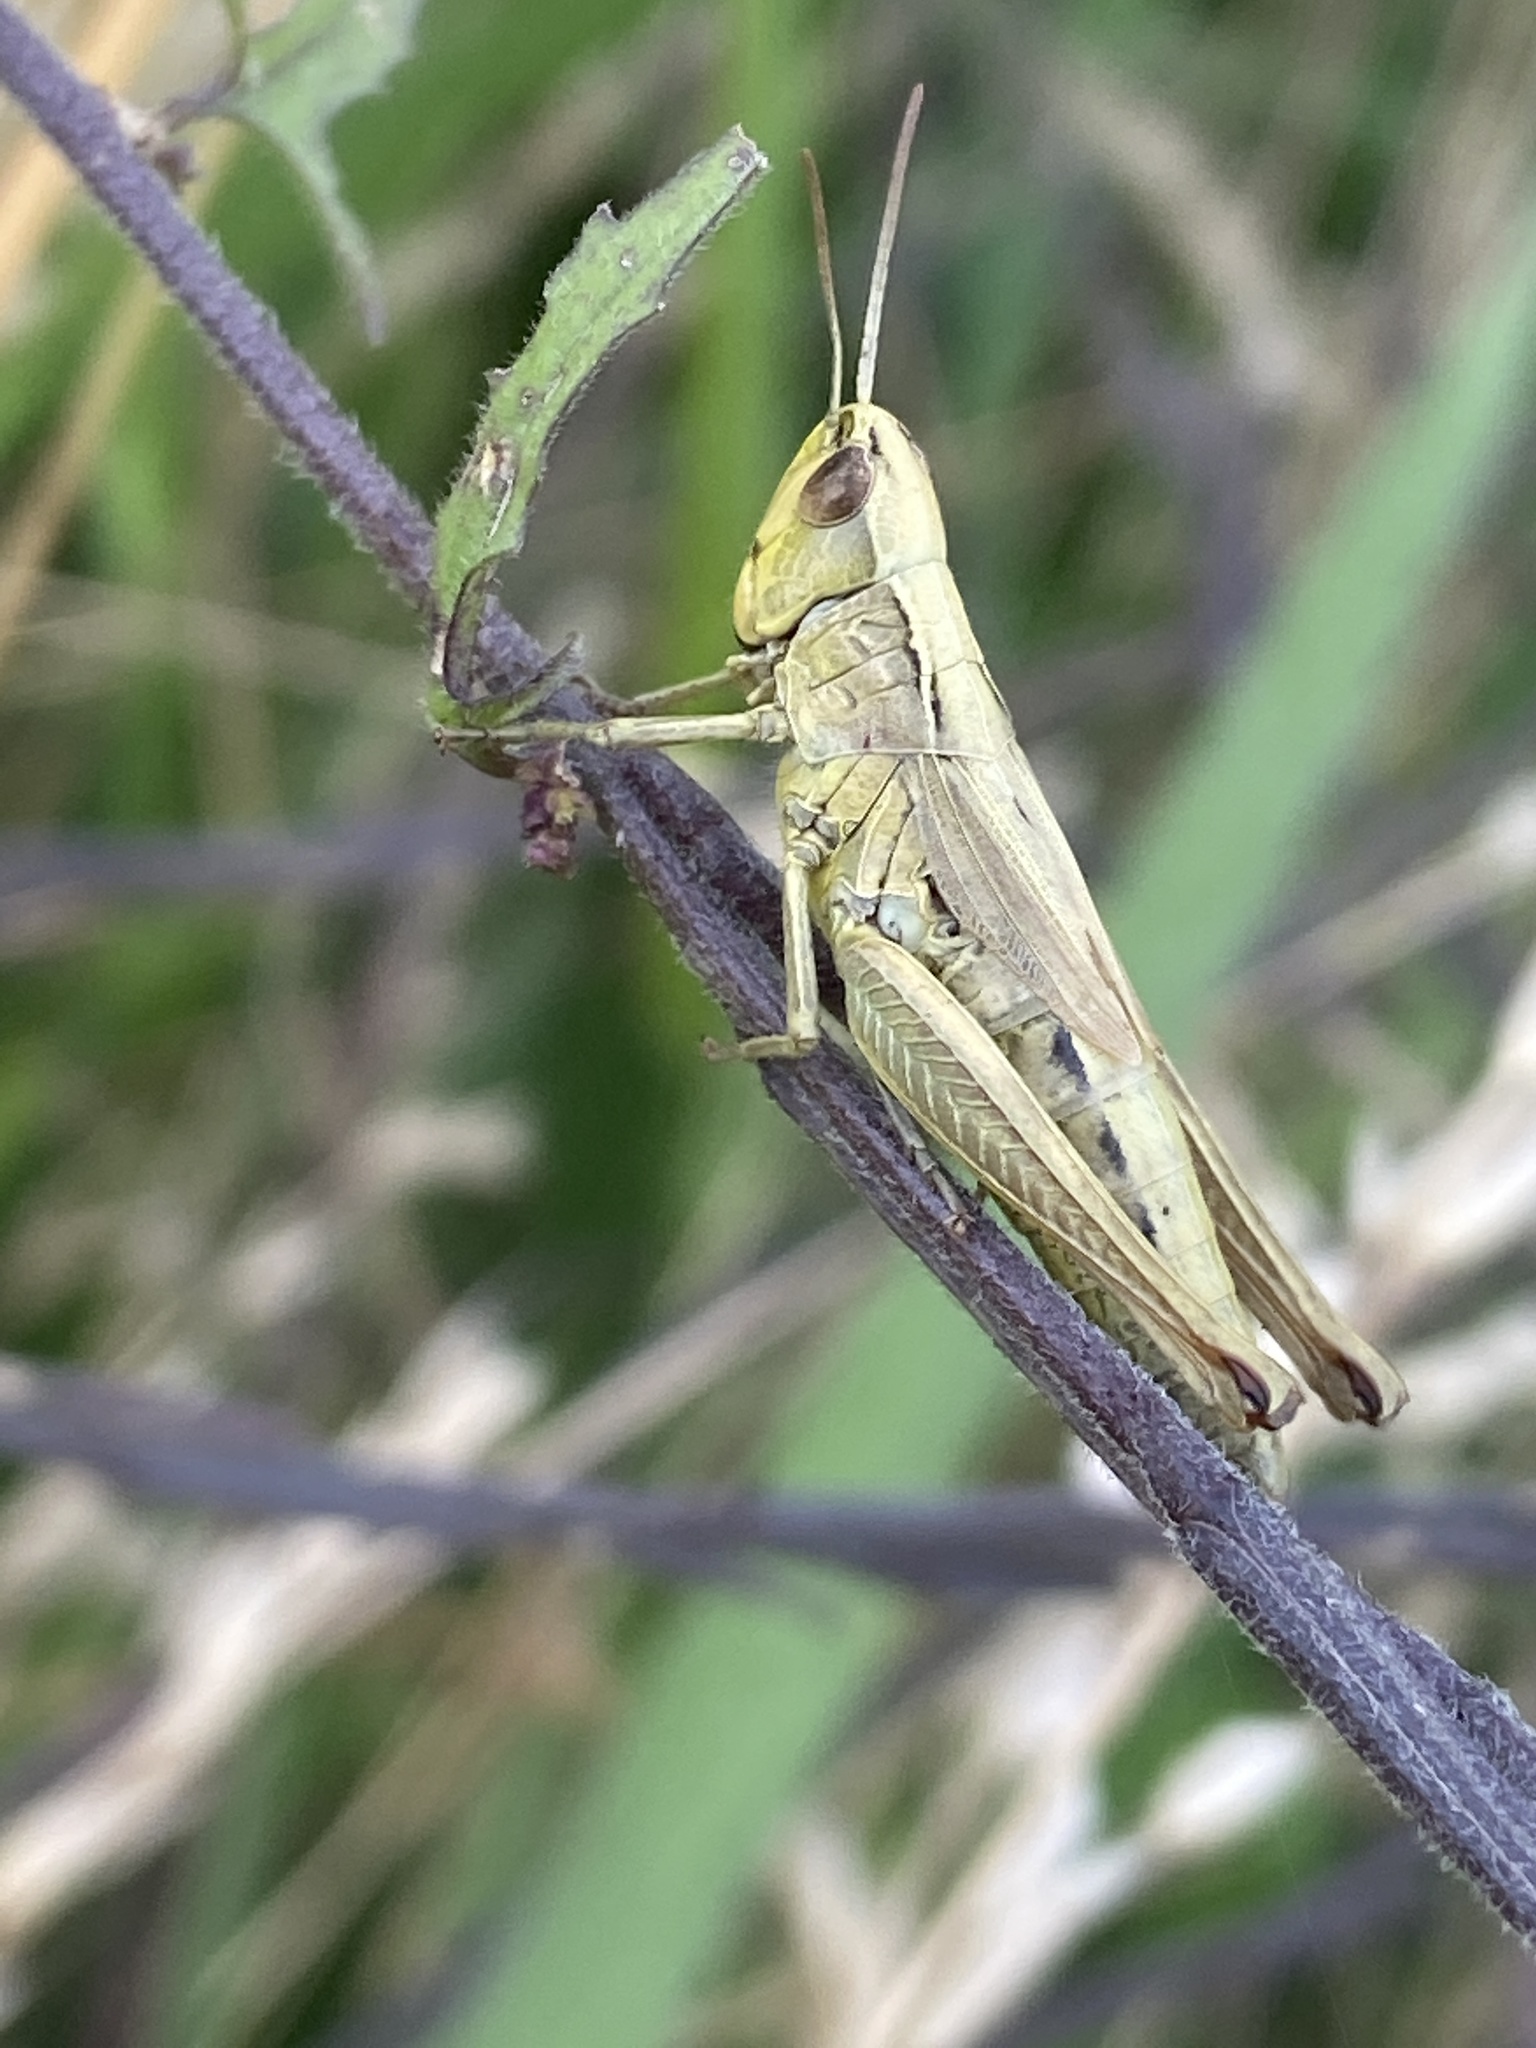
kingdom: Animalia
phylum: Arthropoda
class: Insecta
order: Orthoptera
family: Acrididae
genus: Pseudochorthippus
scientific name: Pseudochorthippus parallelus
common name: Meadow grasshopper
